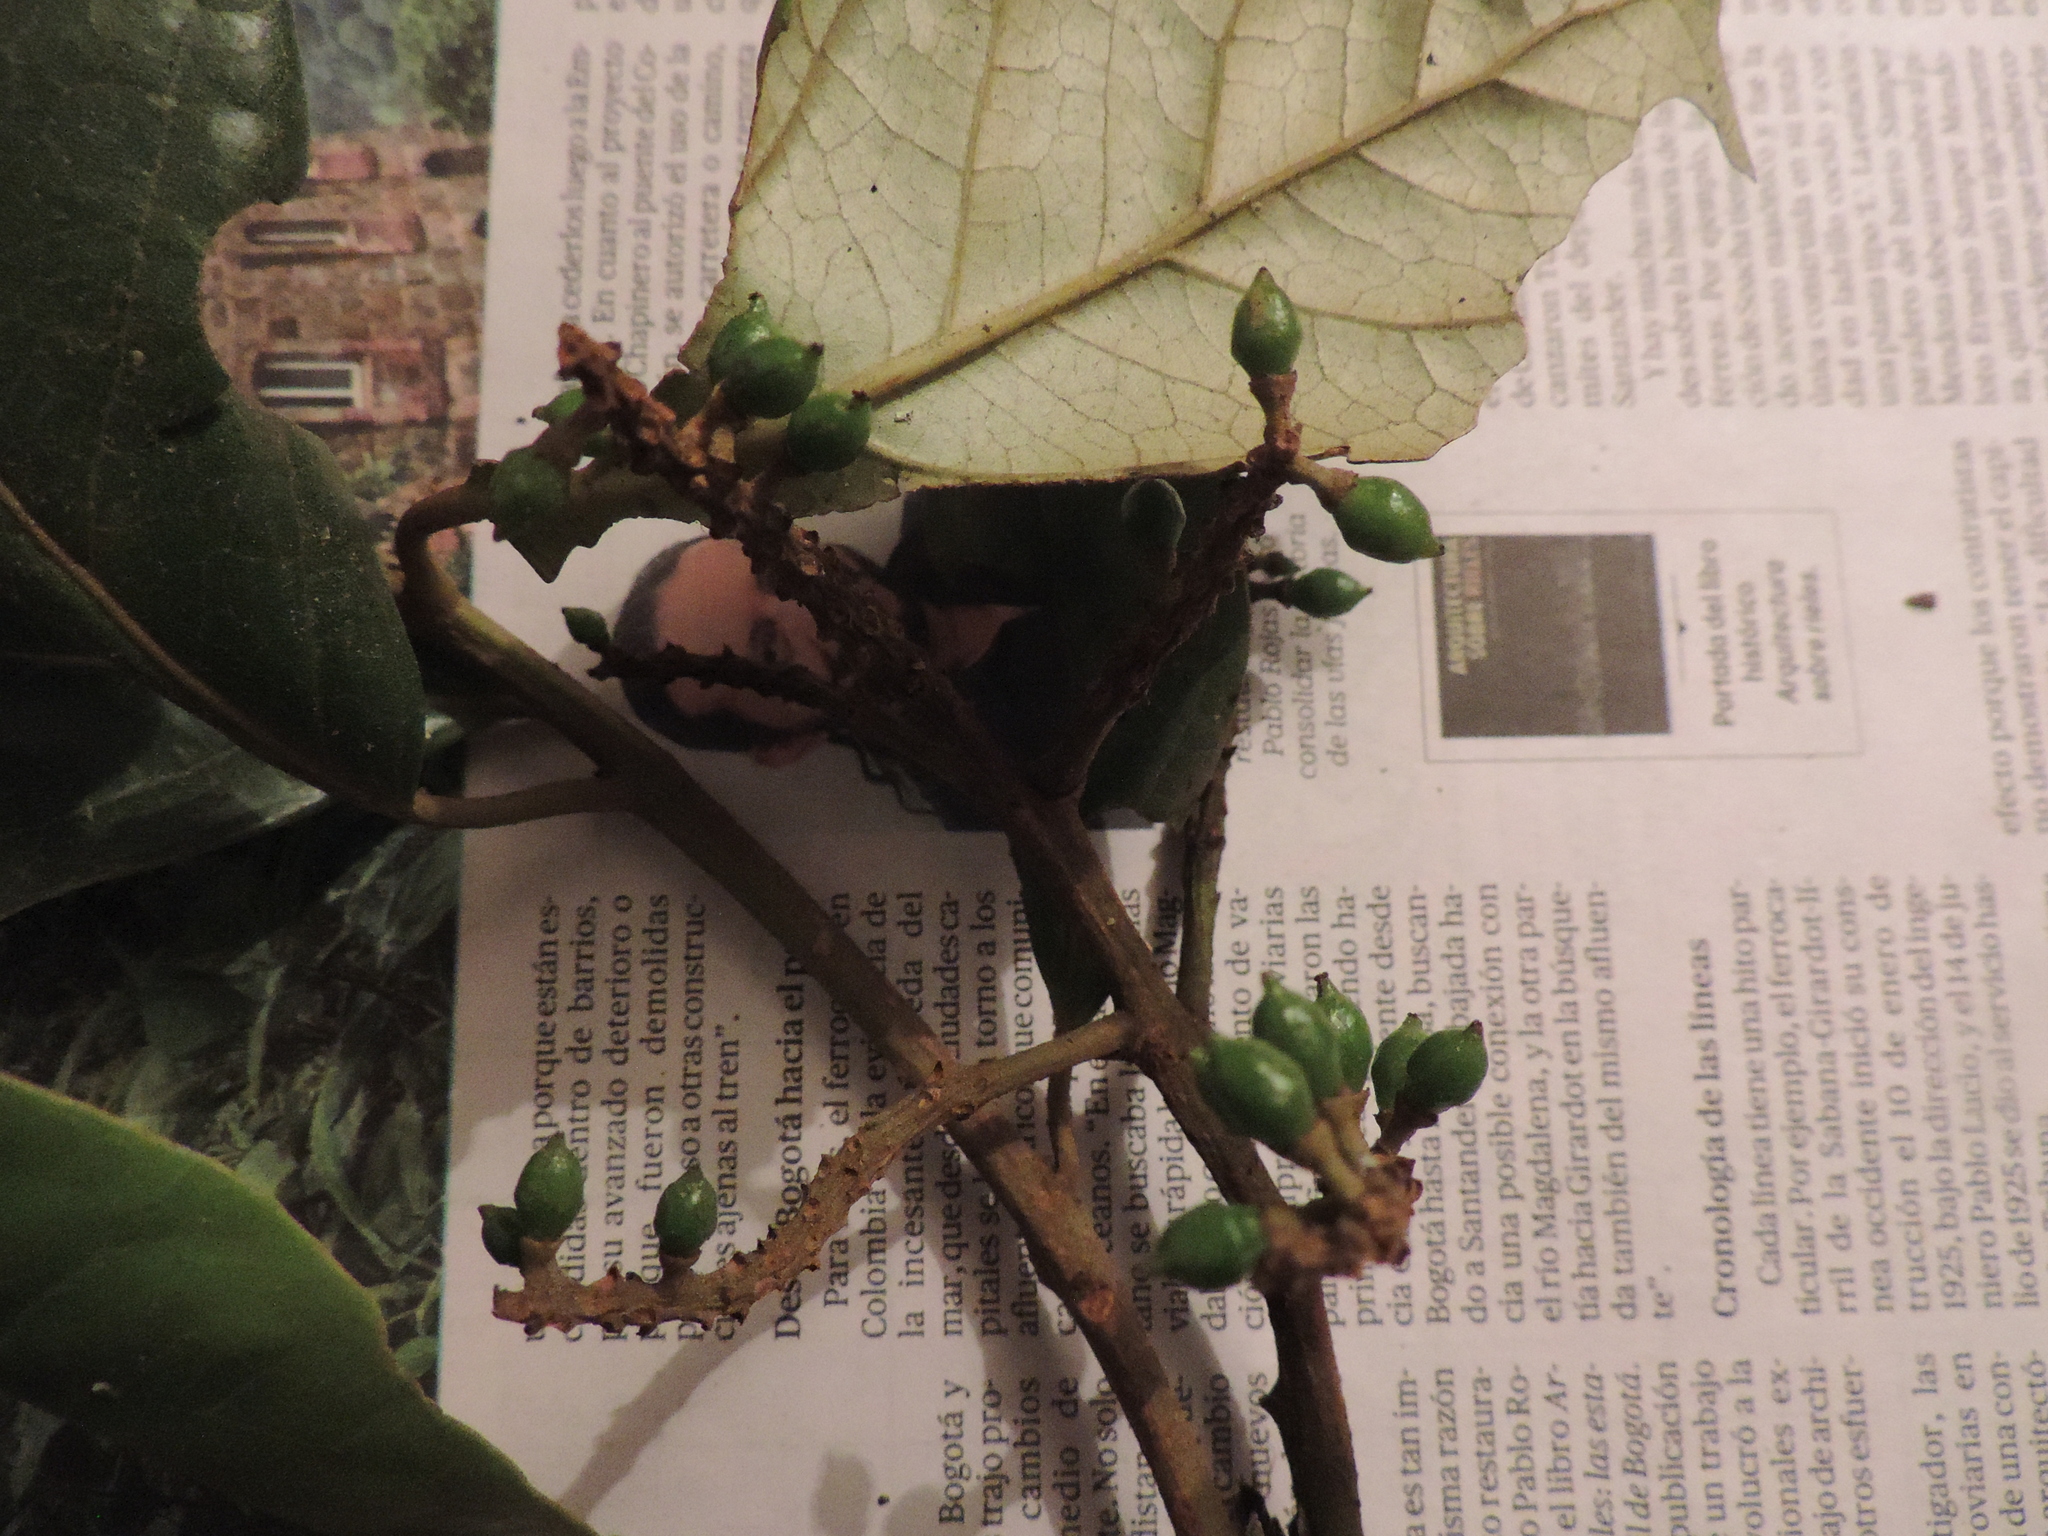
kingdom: Plantae
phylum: Tracheophyta
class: Magnoliopsida
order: Malpighiales
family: Phyllanthaceae
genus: Hieronyma
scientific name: Hieronyma asperifolia
